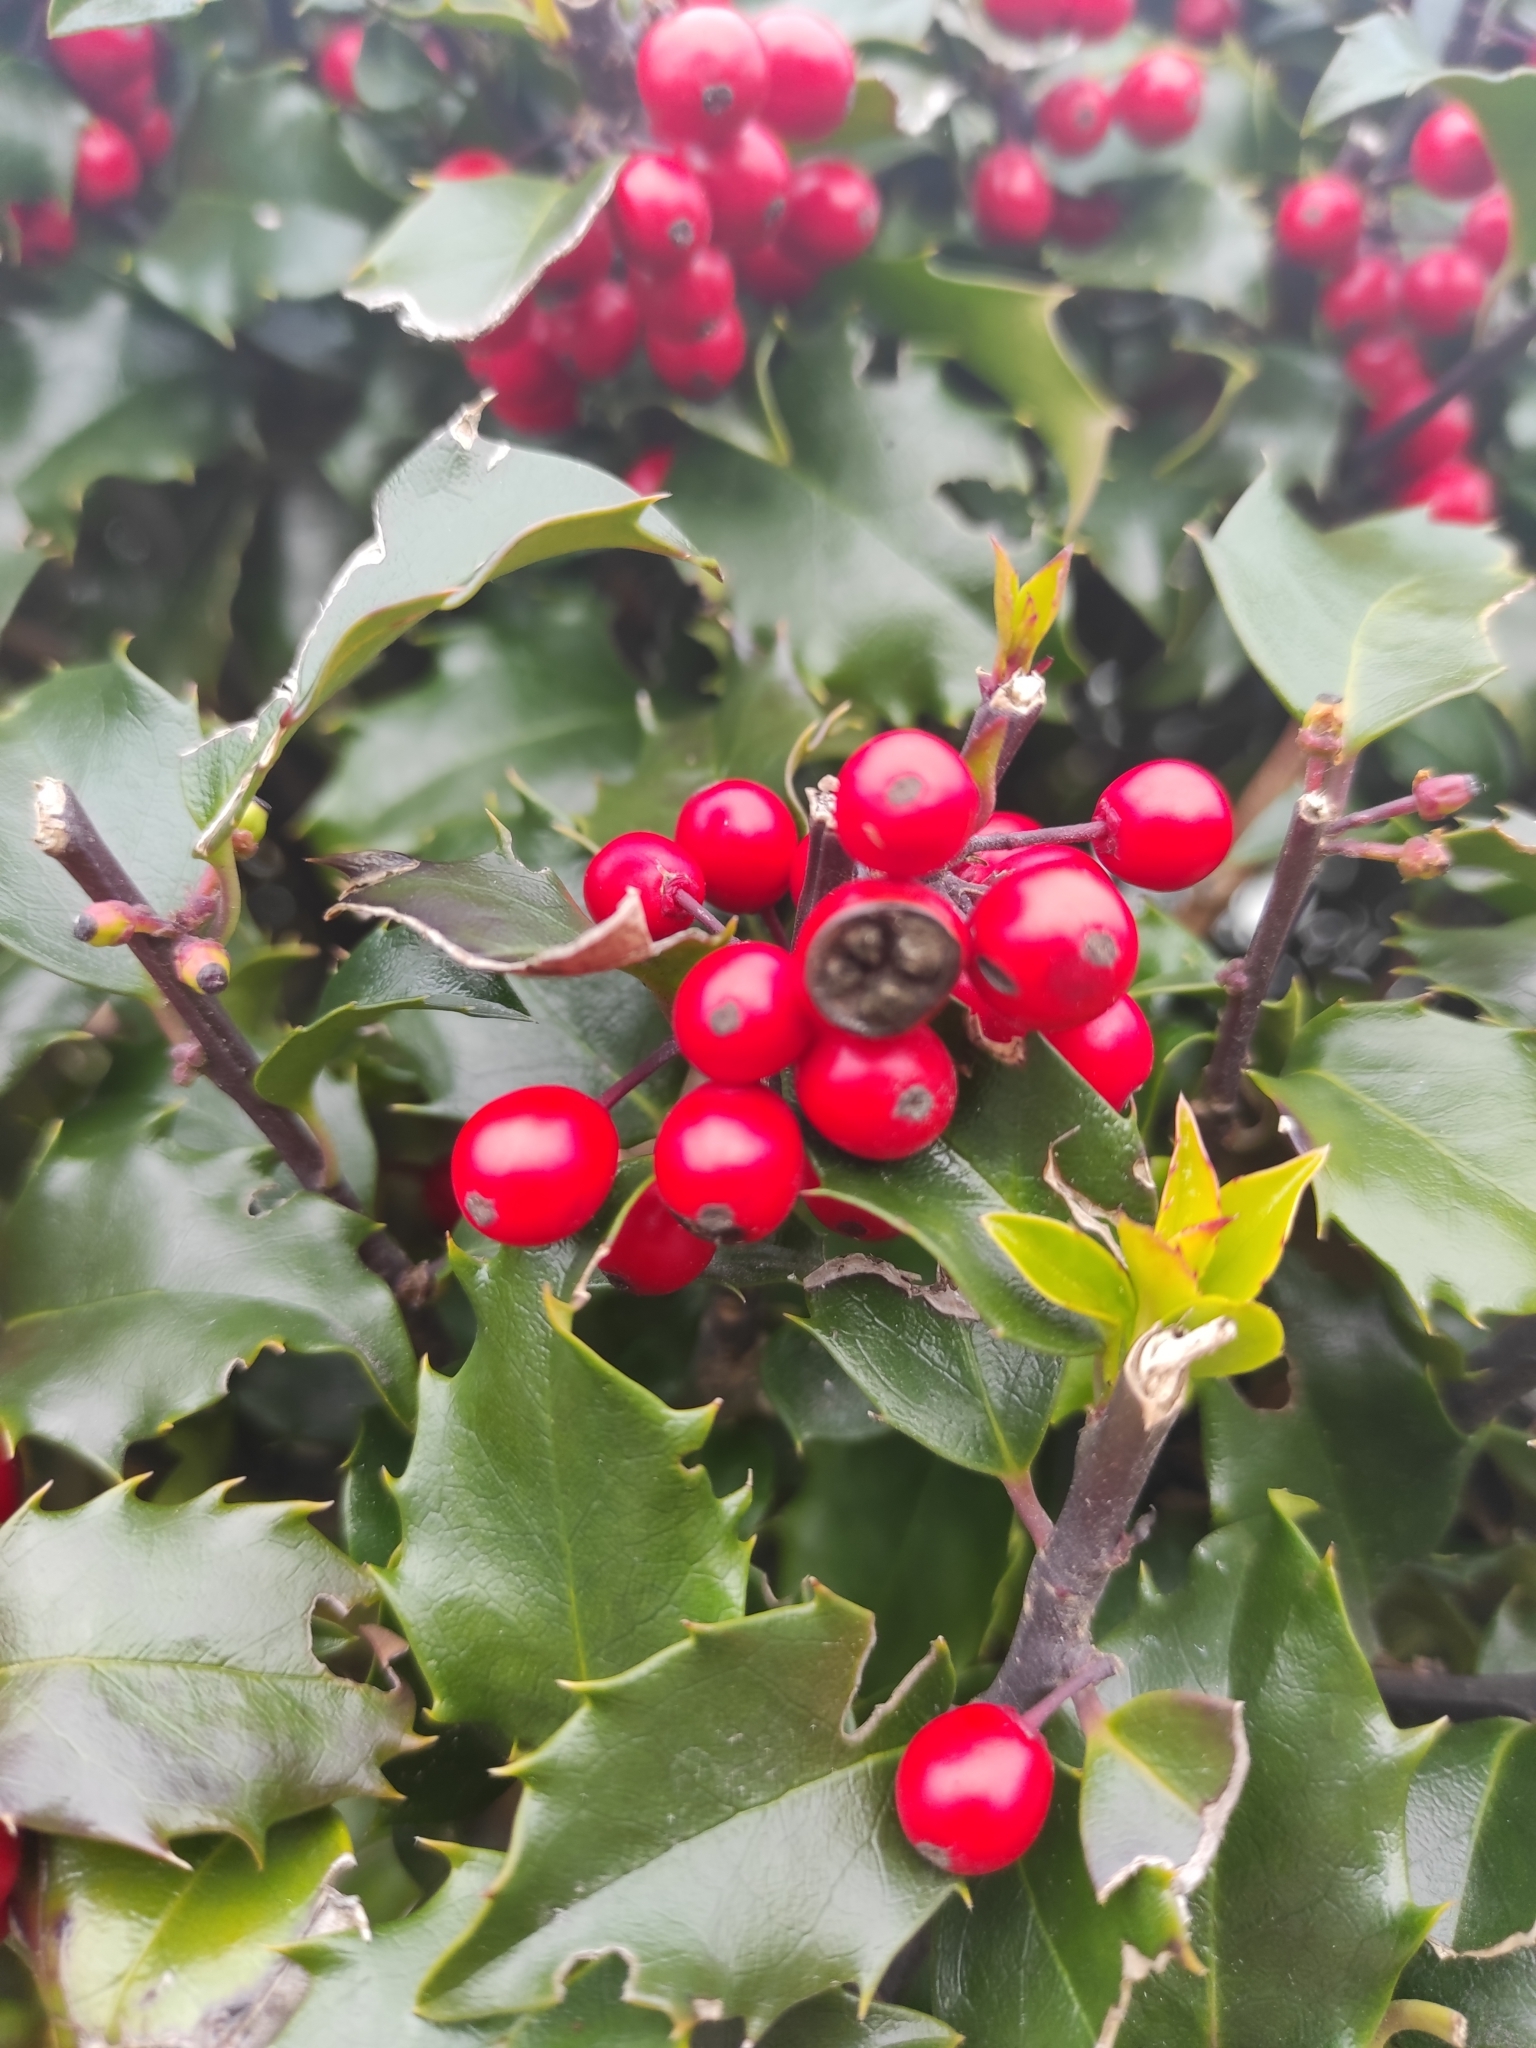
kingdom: Plantae
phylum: Tracheophyta
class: Magnoliopsida
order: Aquifoliales
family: Aquifoliaceae
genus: Ilex
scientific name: Ilex aquifolium
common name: English holly
